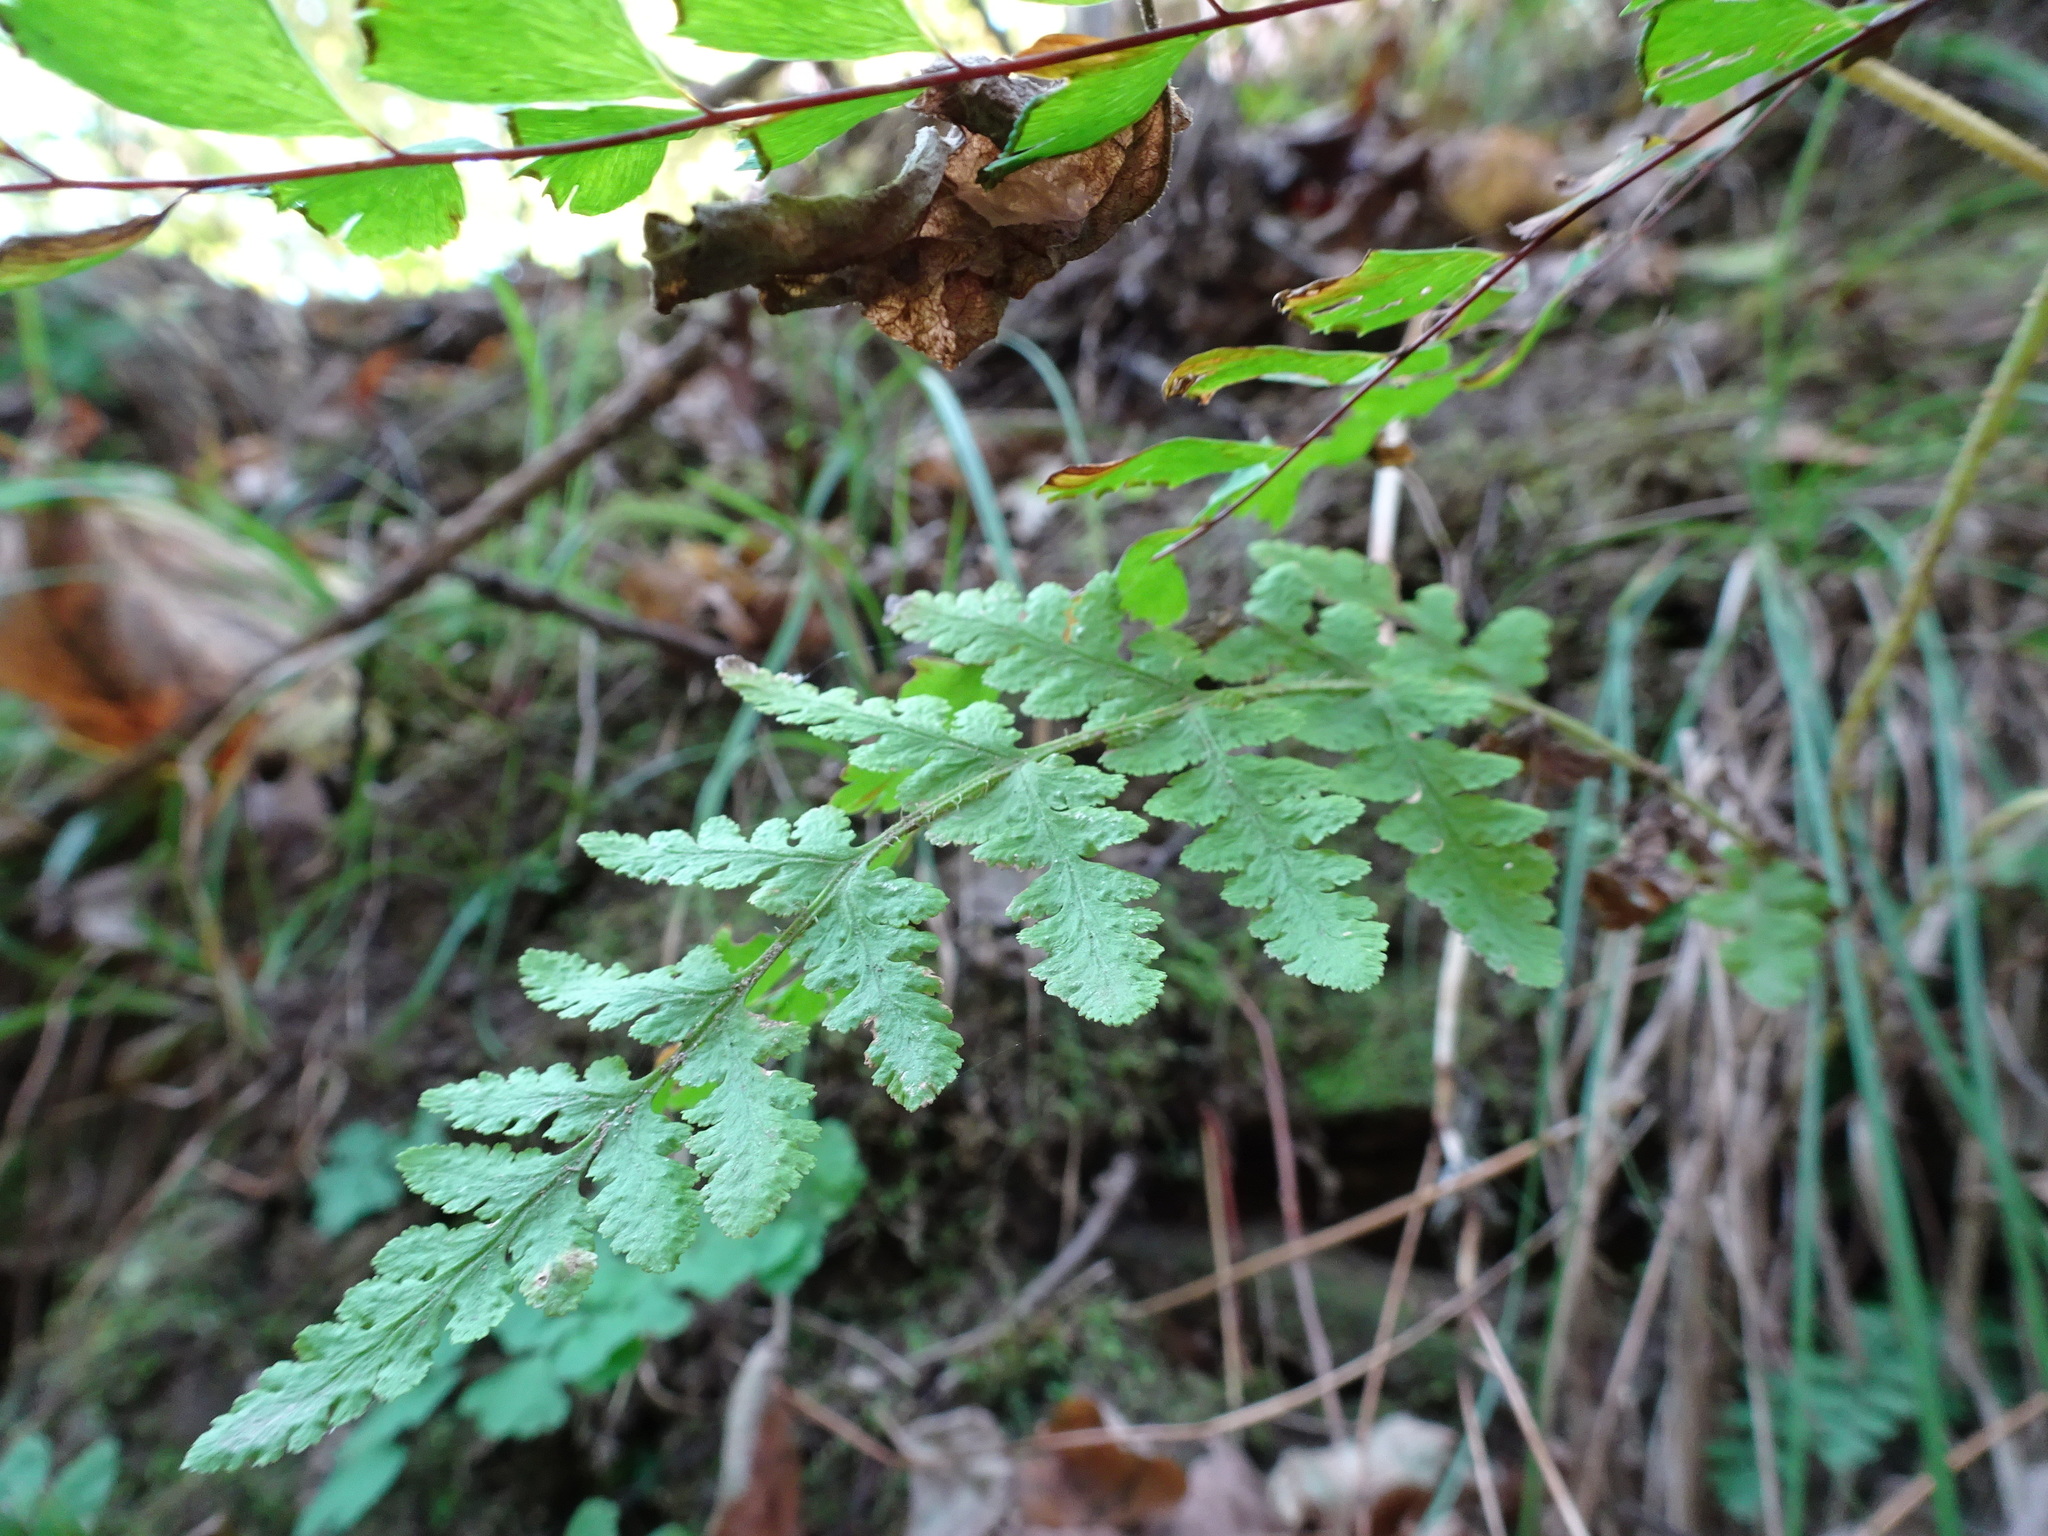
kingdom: Plantae
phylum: Tracheophyta
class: Polypodiopsida
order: Polypodiales
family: Woodsiaceae
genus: Physematium
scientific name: Physematium obtusum
